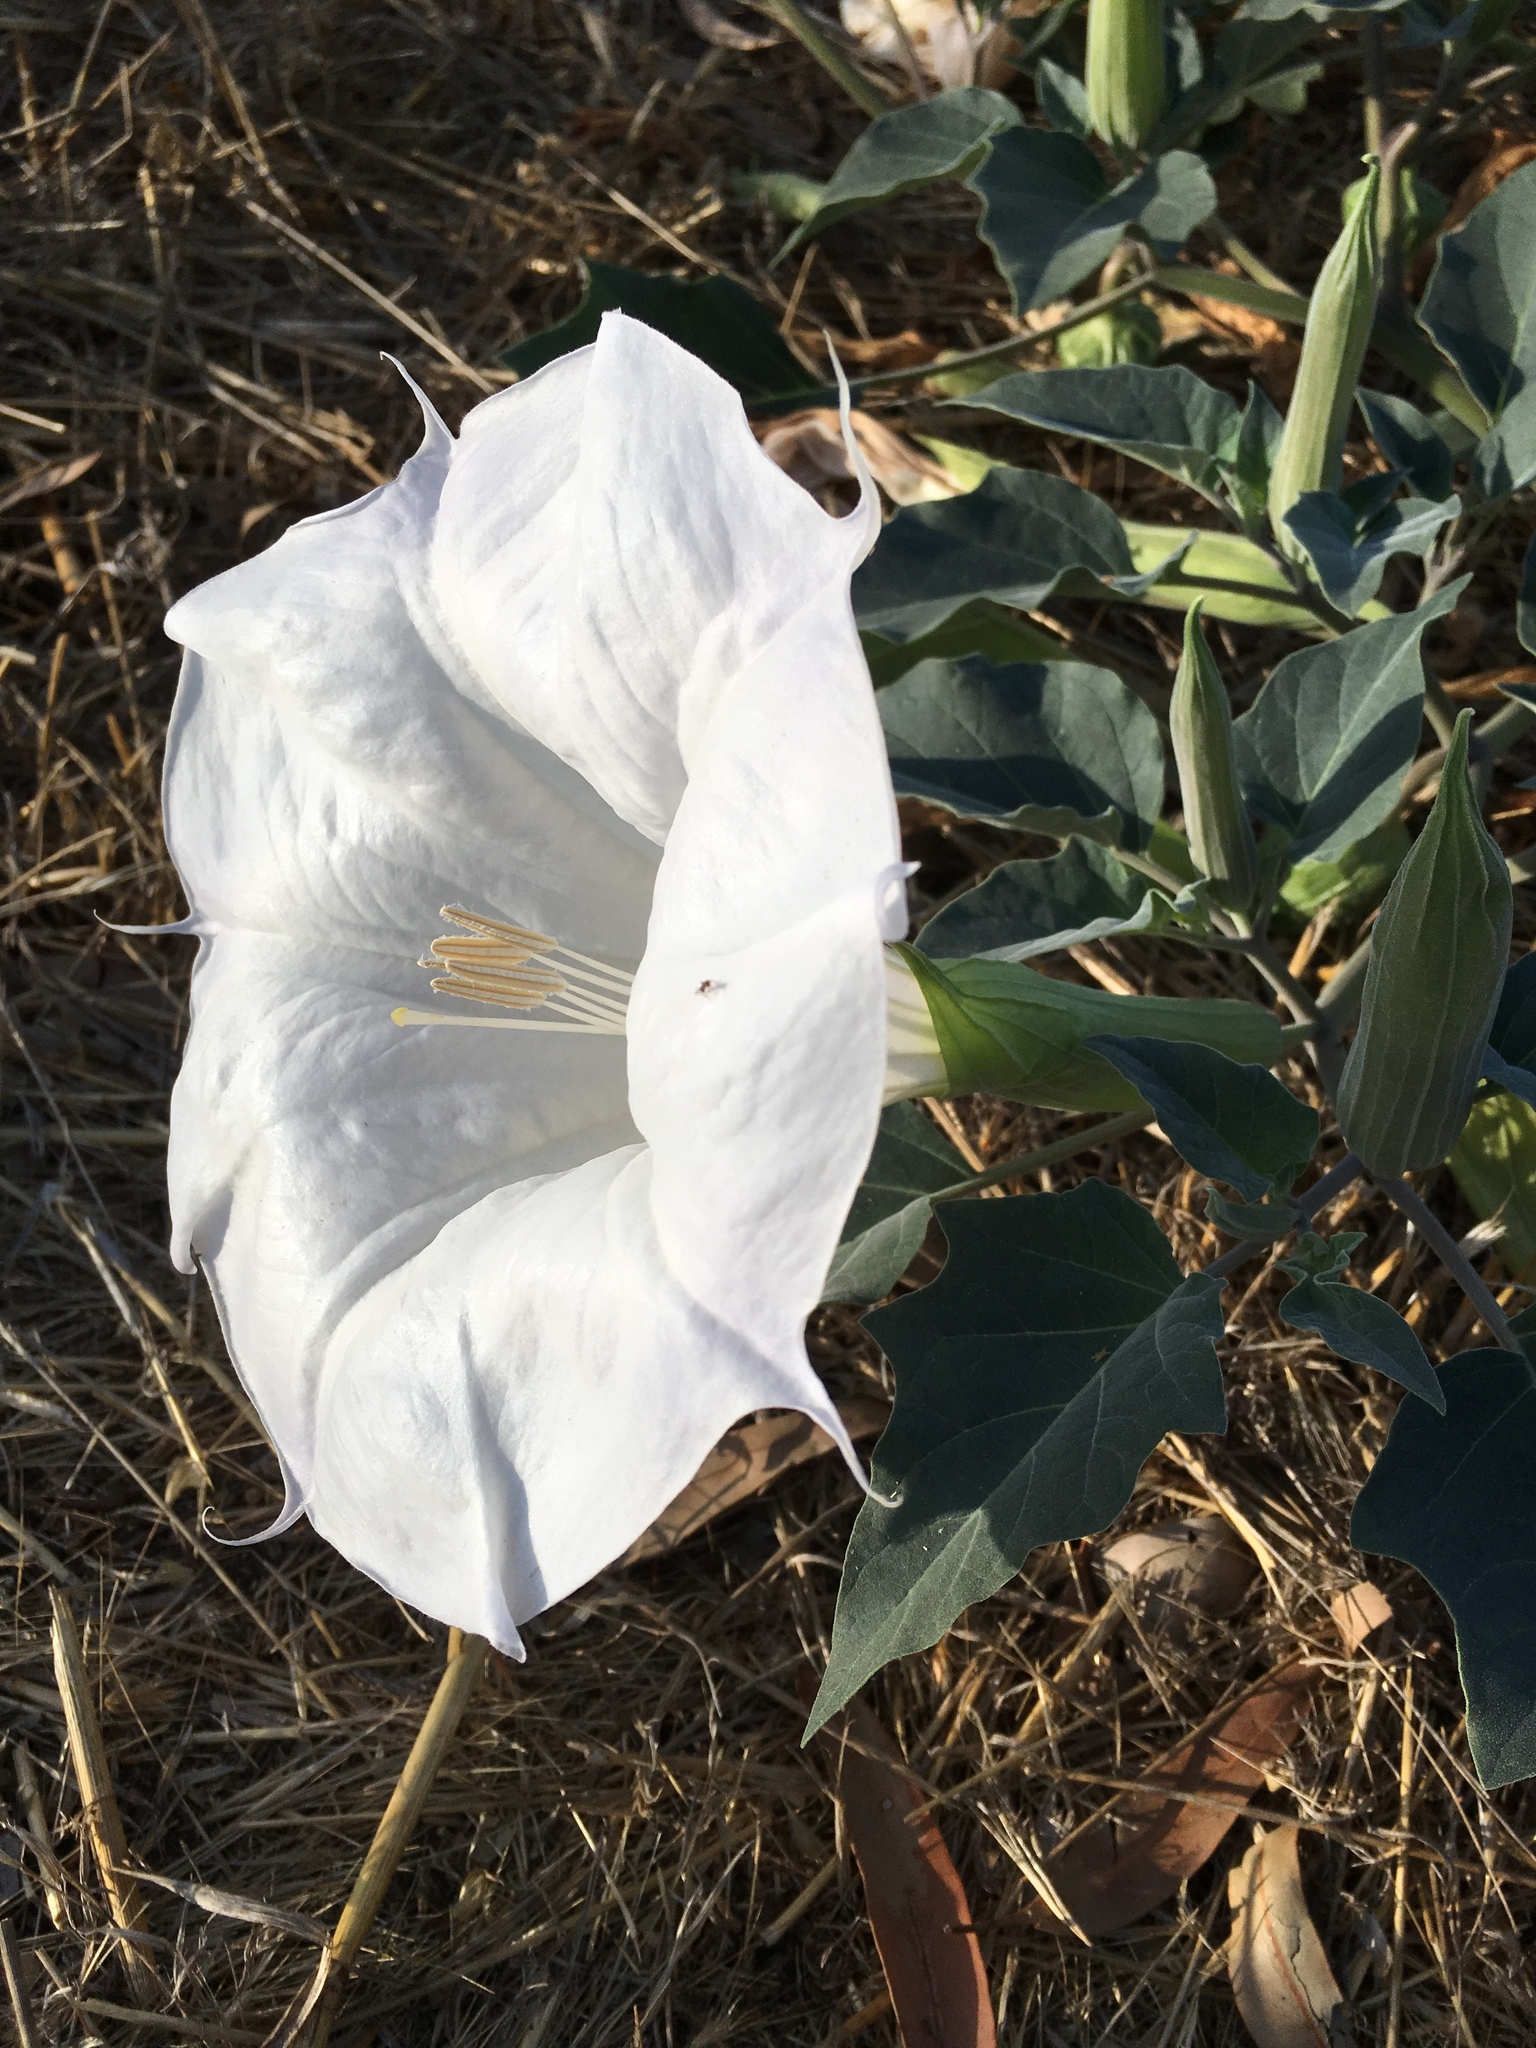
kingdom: Plantae
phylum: Tracheophyta
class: Magnoliopsida
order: Solanales
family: Solanaceae
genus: Datura
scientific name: Datura wrightii
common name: Sacred thorn-apple
